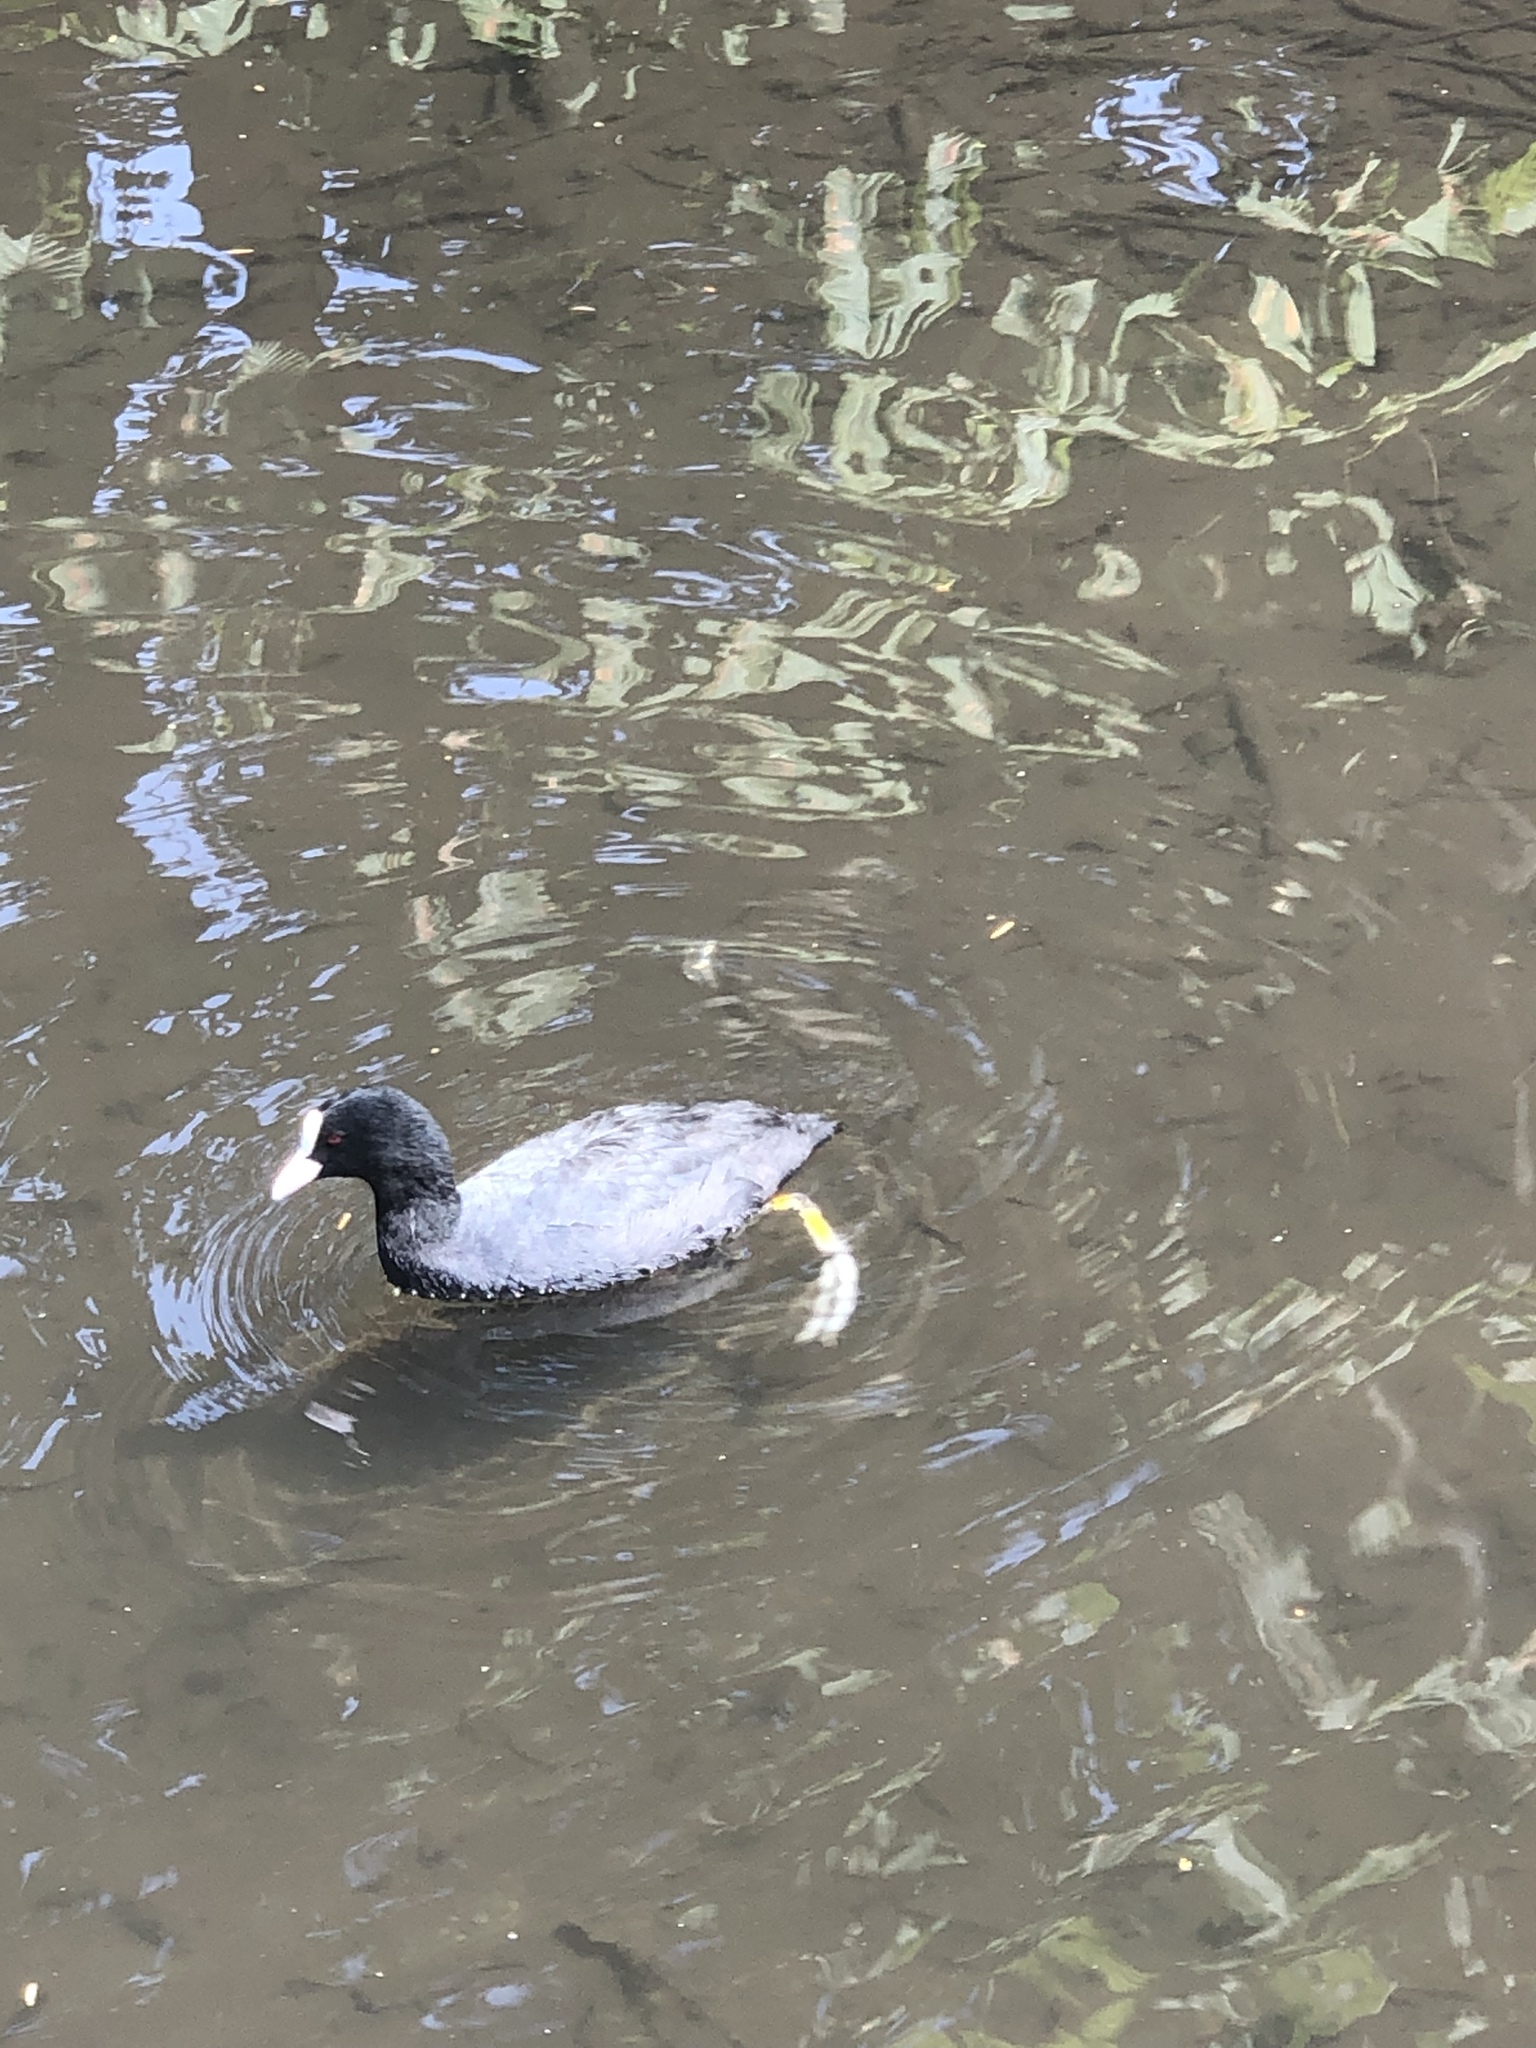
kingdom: Animalia
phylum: Chordata
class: Aves
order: Gruiformes
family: Rallidae
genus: Fulica
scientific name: Fulica atra
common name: Eurasian coot
